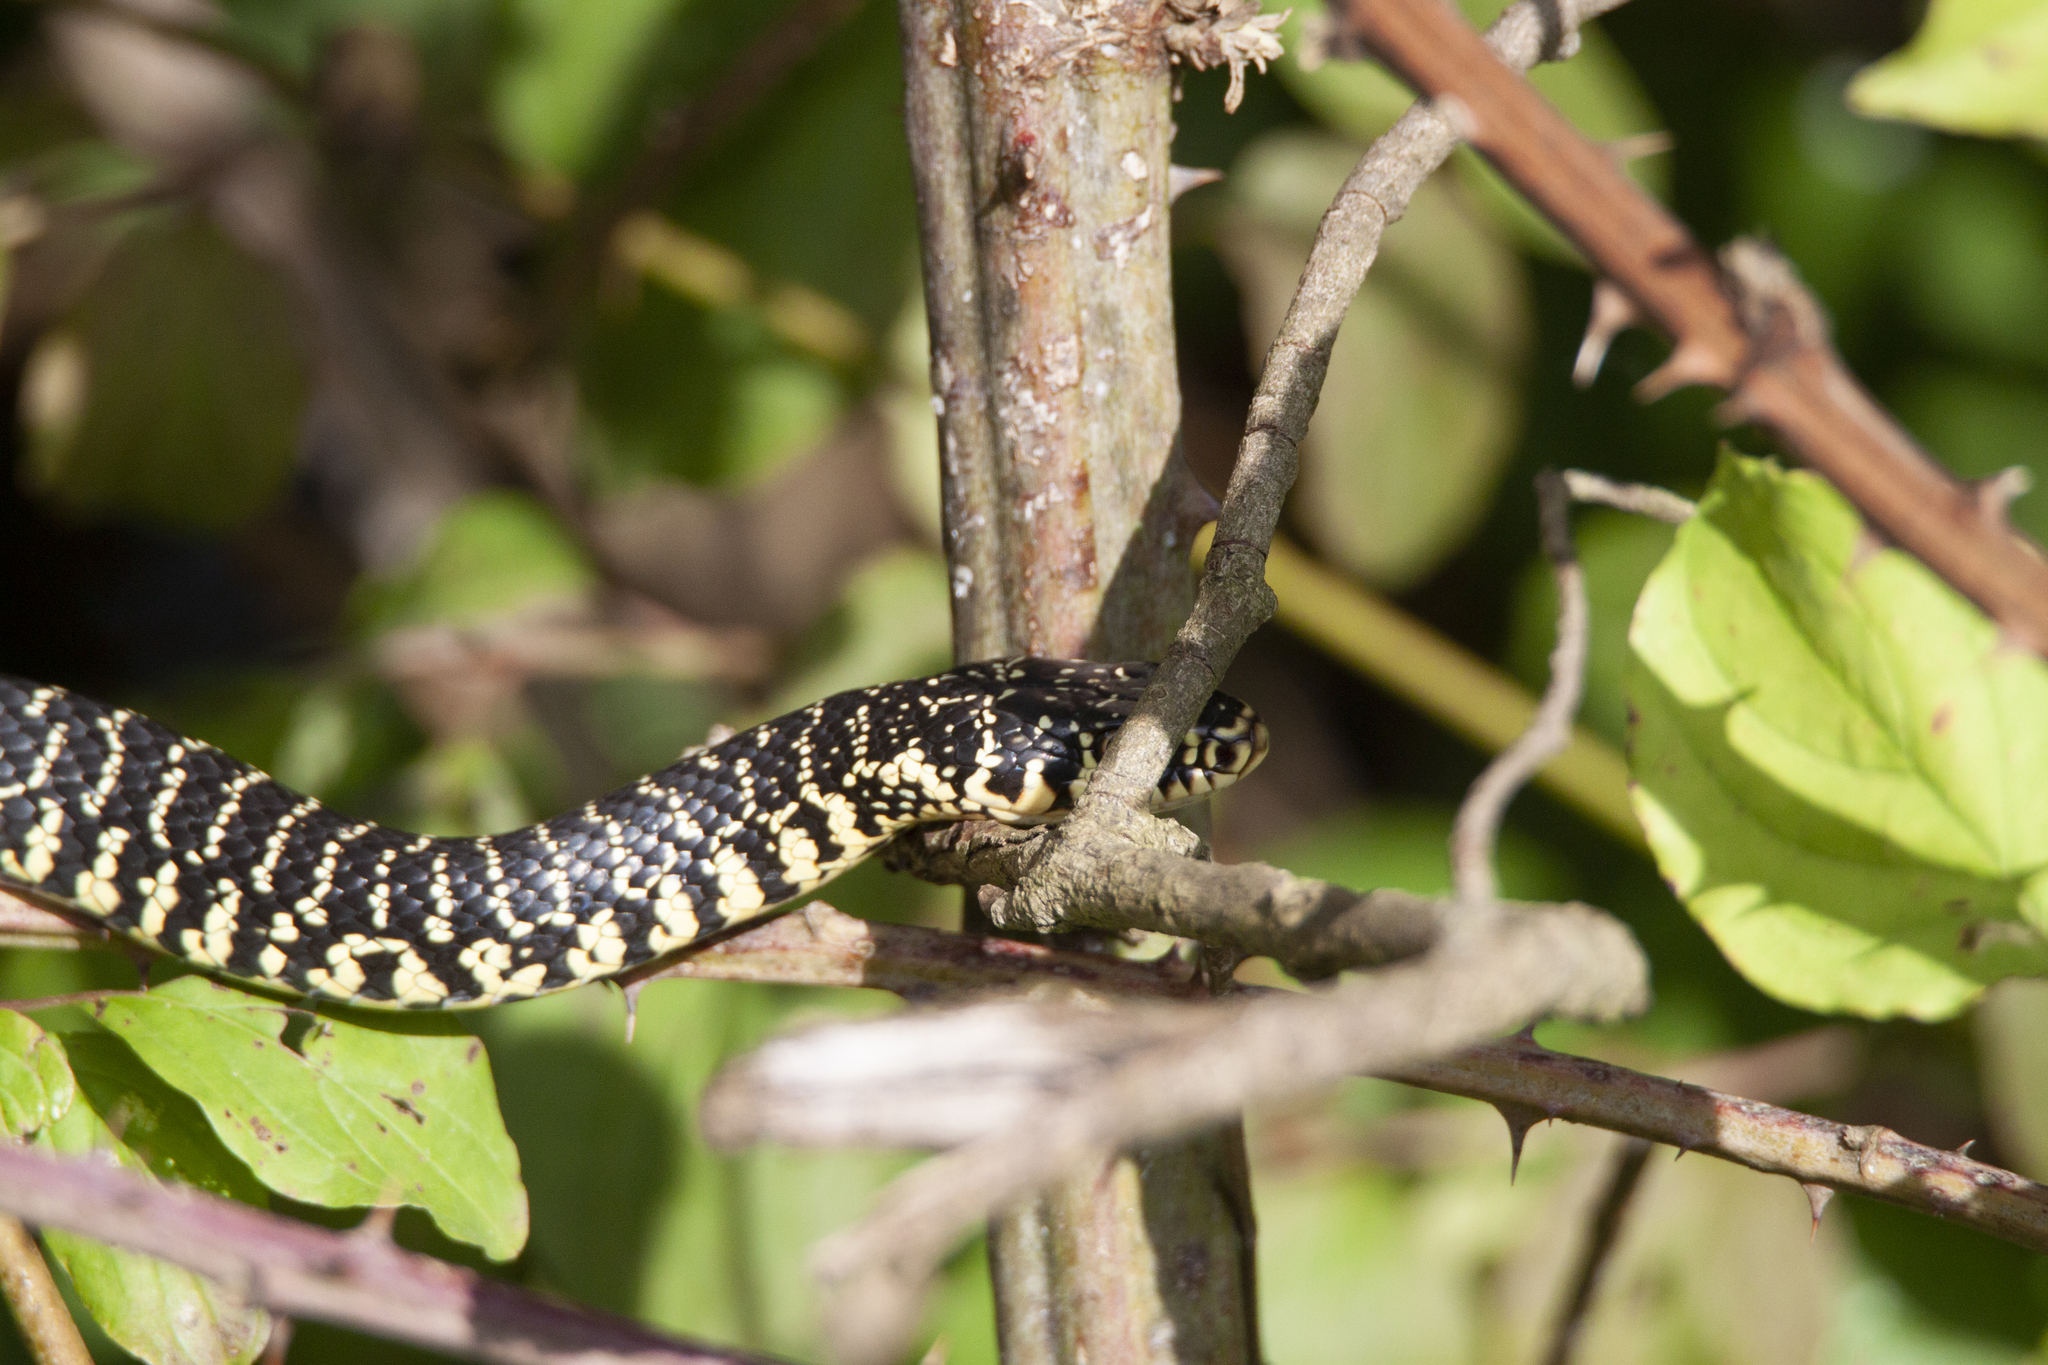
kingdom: Animalia
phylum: Chordata
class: Squamata
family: Colubridae
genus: Hierophis
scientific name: Hierophis viridiflavus
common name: Green whip snake
